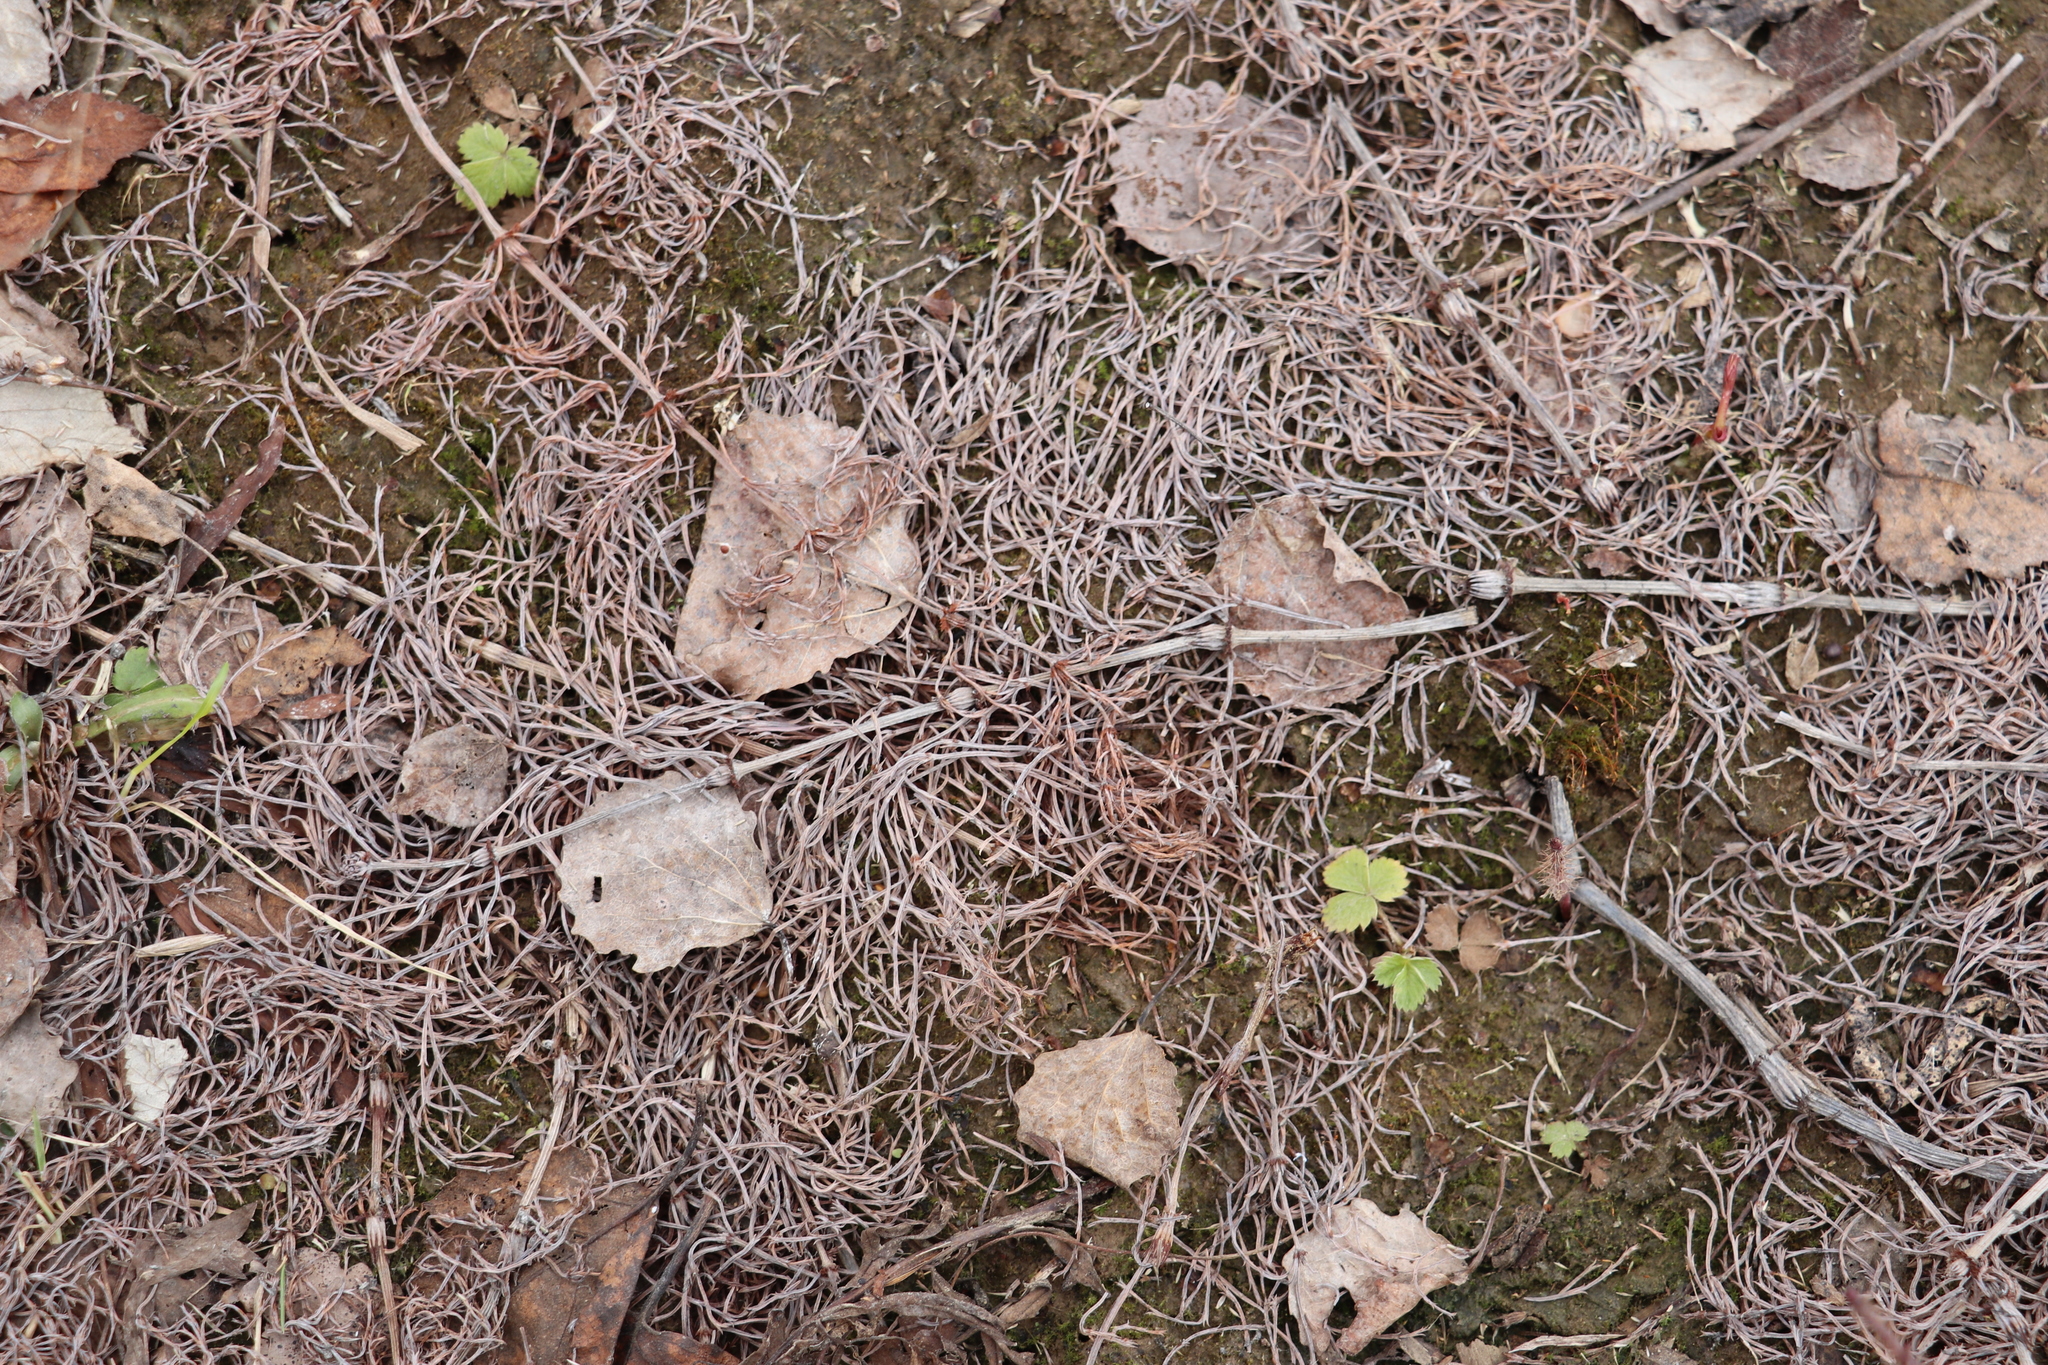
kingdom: Plantae
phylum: Tracheophyta
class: Polypodiopsida
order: Equisetales
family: Equisetaceae
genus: Equisetum
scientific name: Equisetum sylvaticum
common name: Wood horsetail
